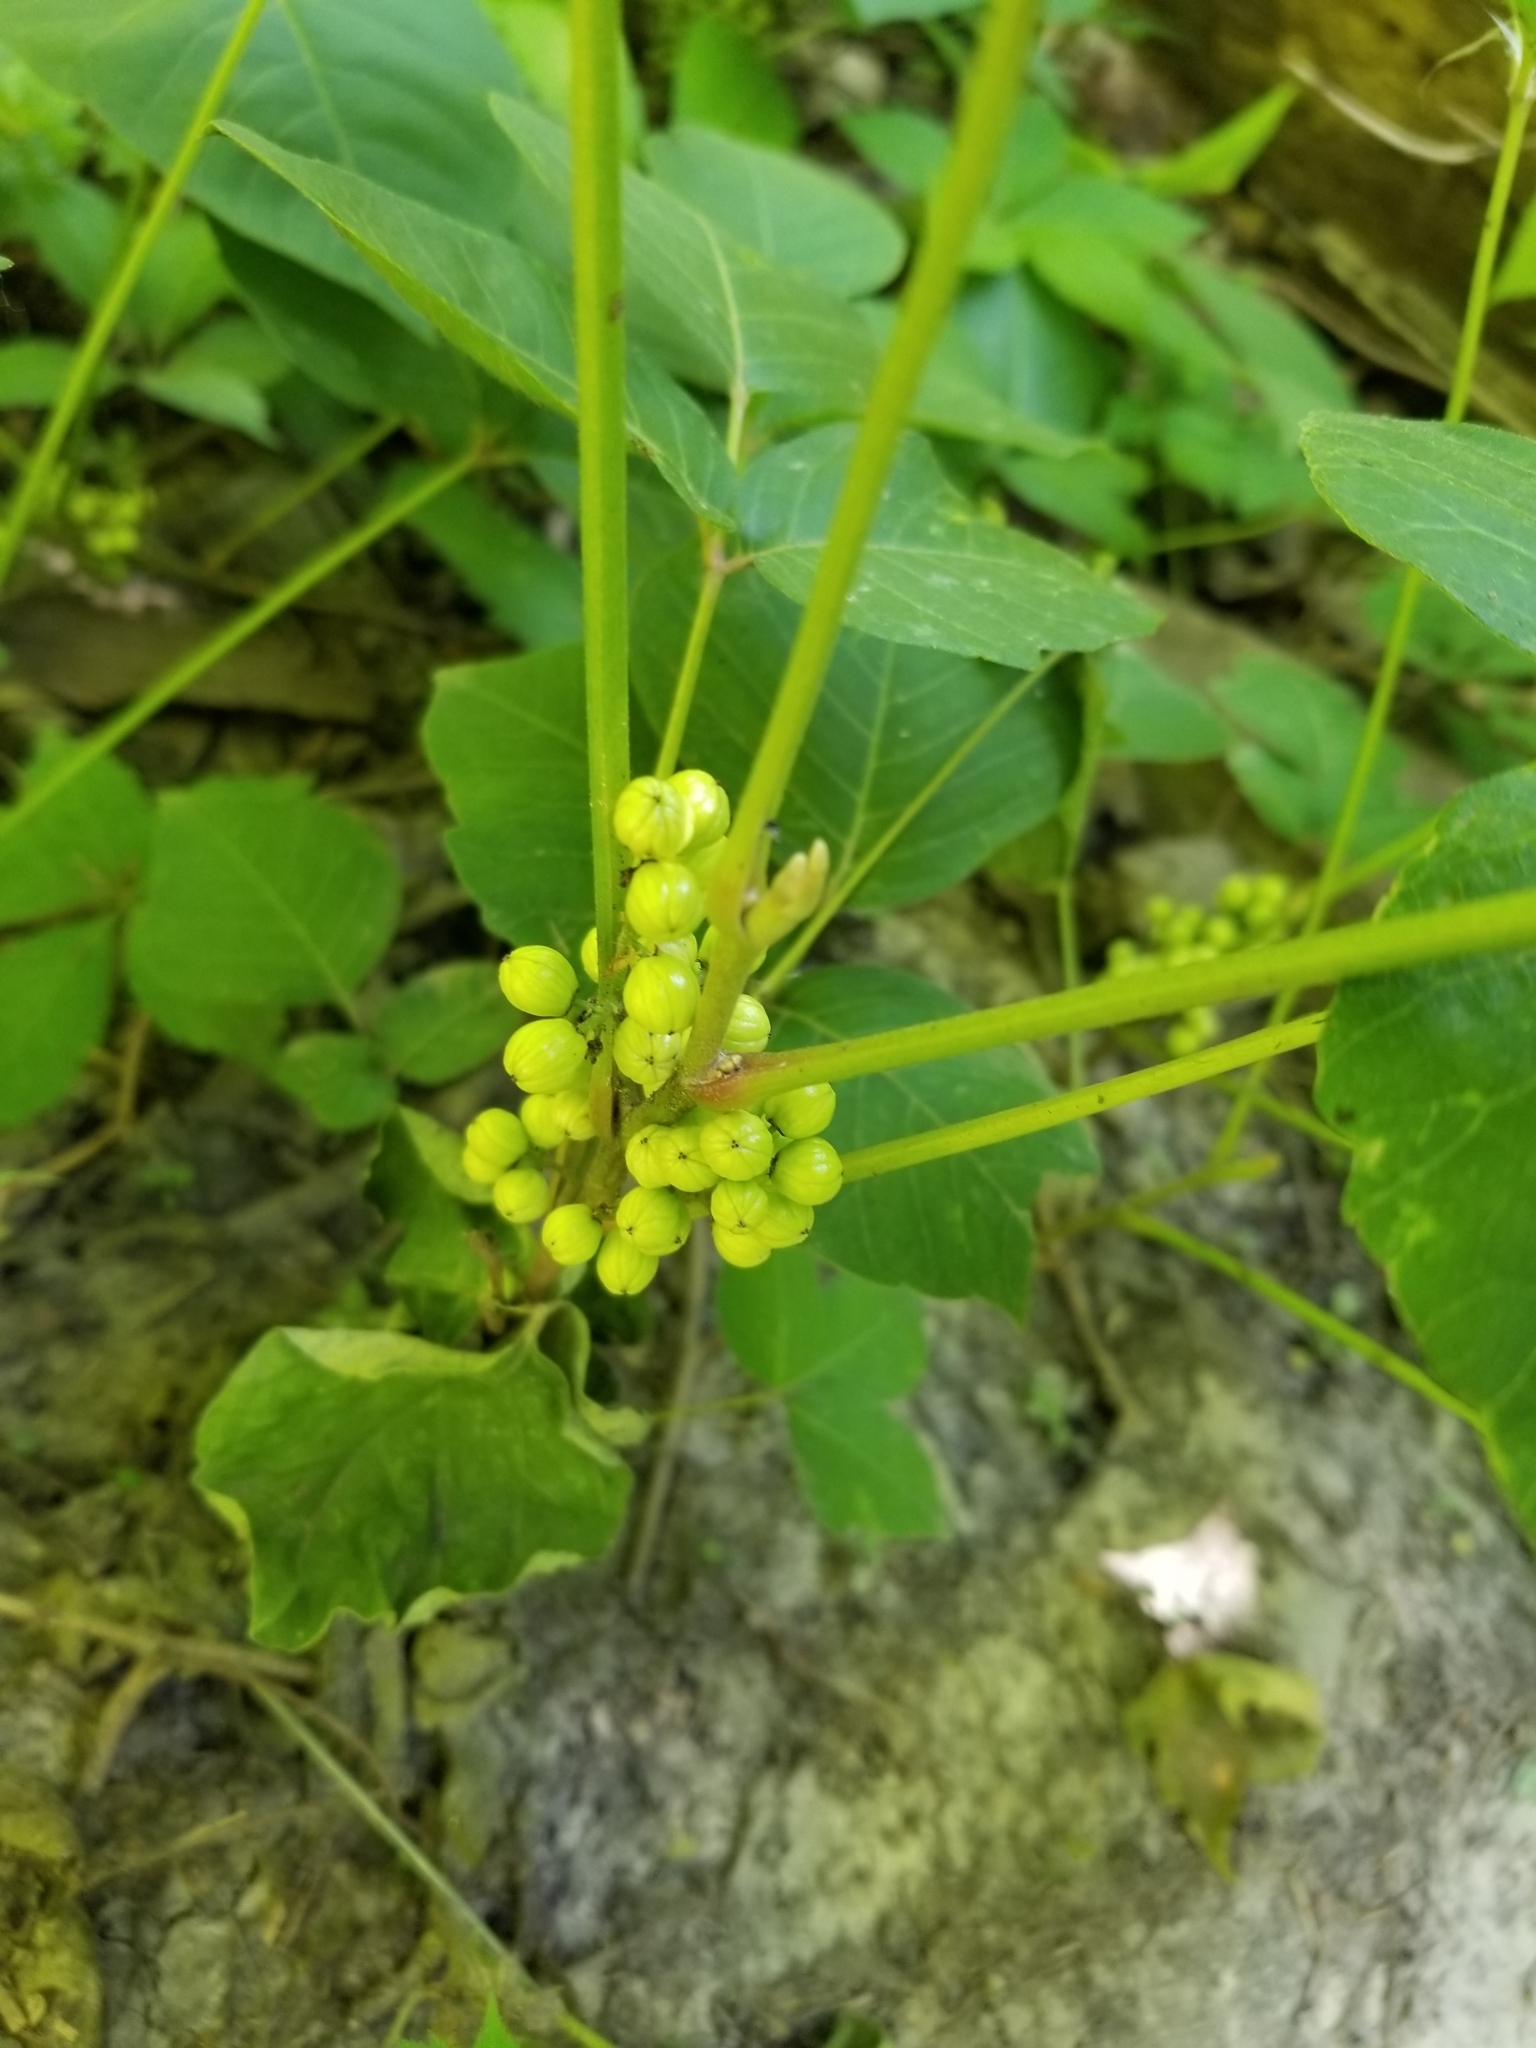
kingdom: Plantae
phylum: Tracheophyta
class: Magnoliopsida
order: Sapindales
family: Anacardiaceae
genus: Toxicodendron
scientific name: Toxicodendron radicans
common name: Poison ivy
